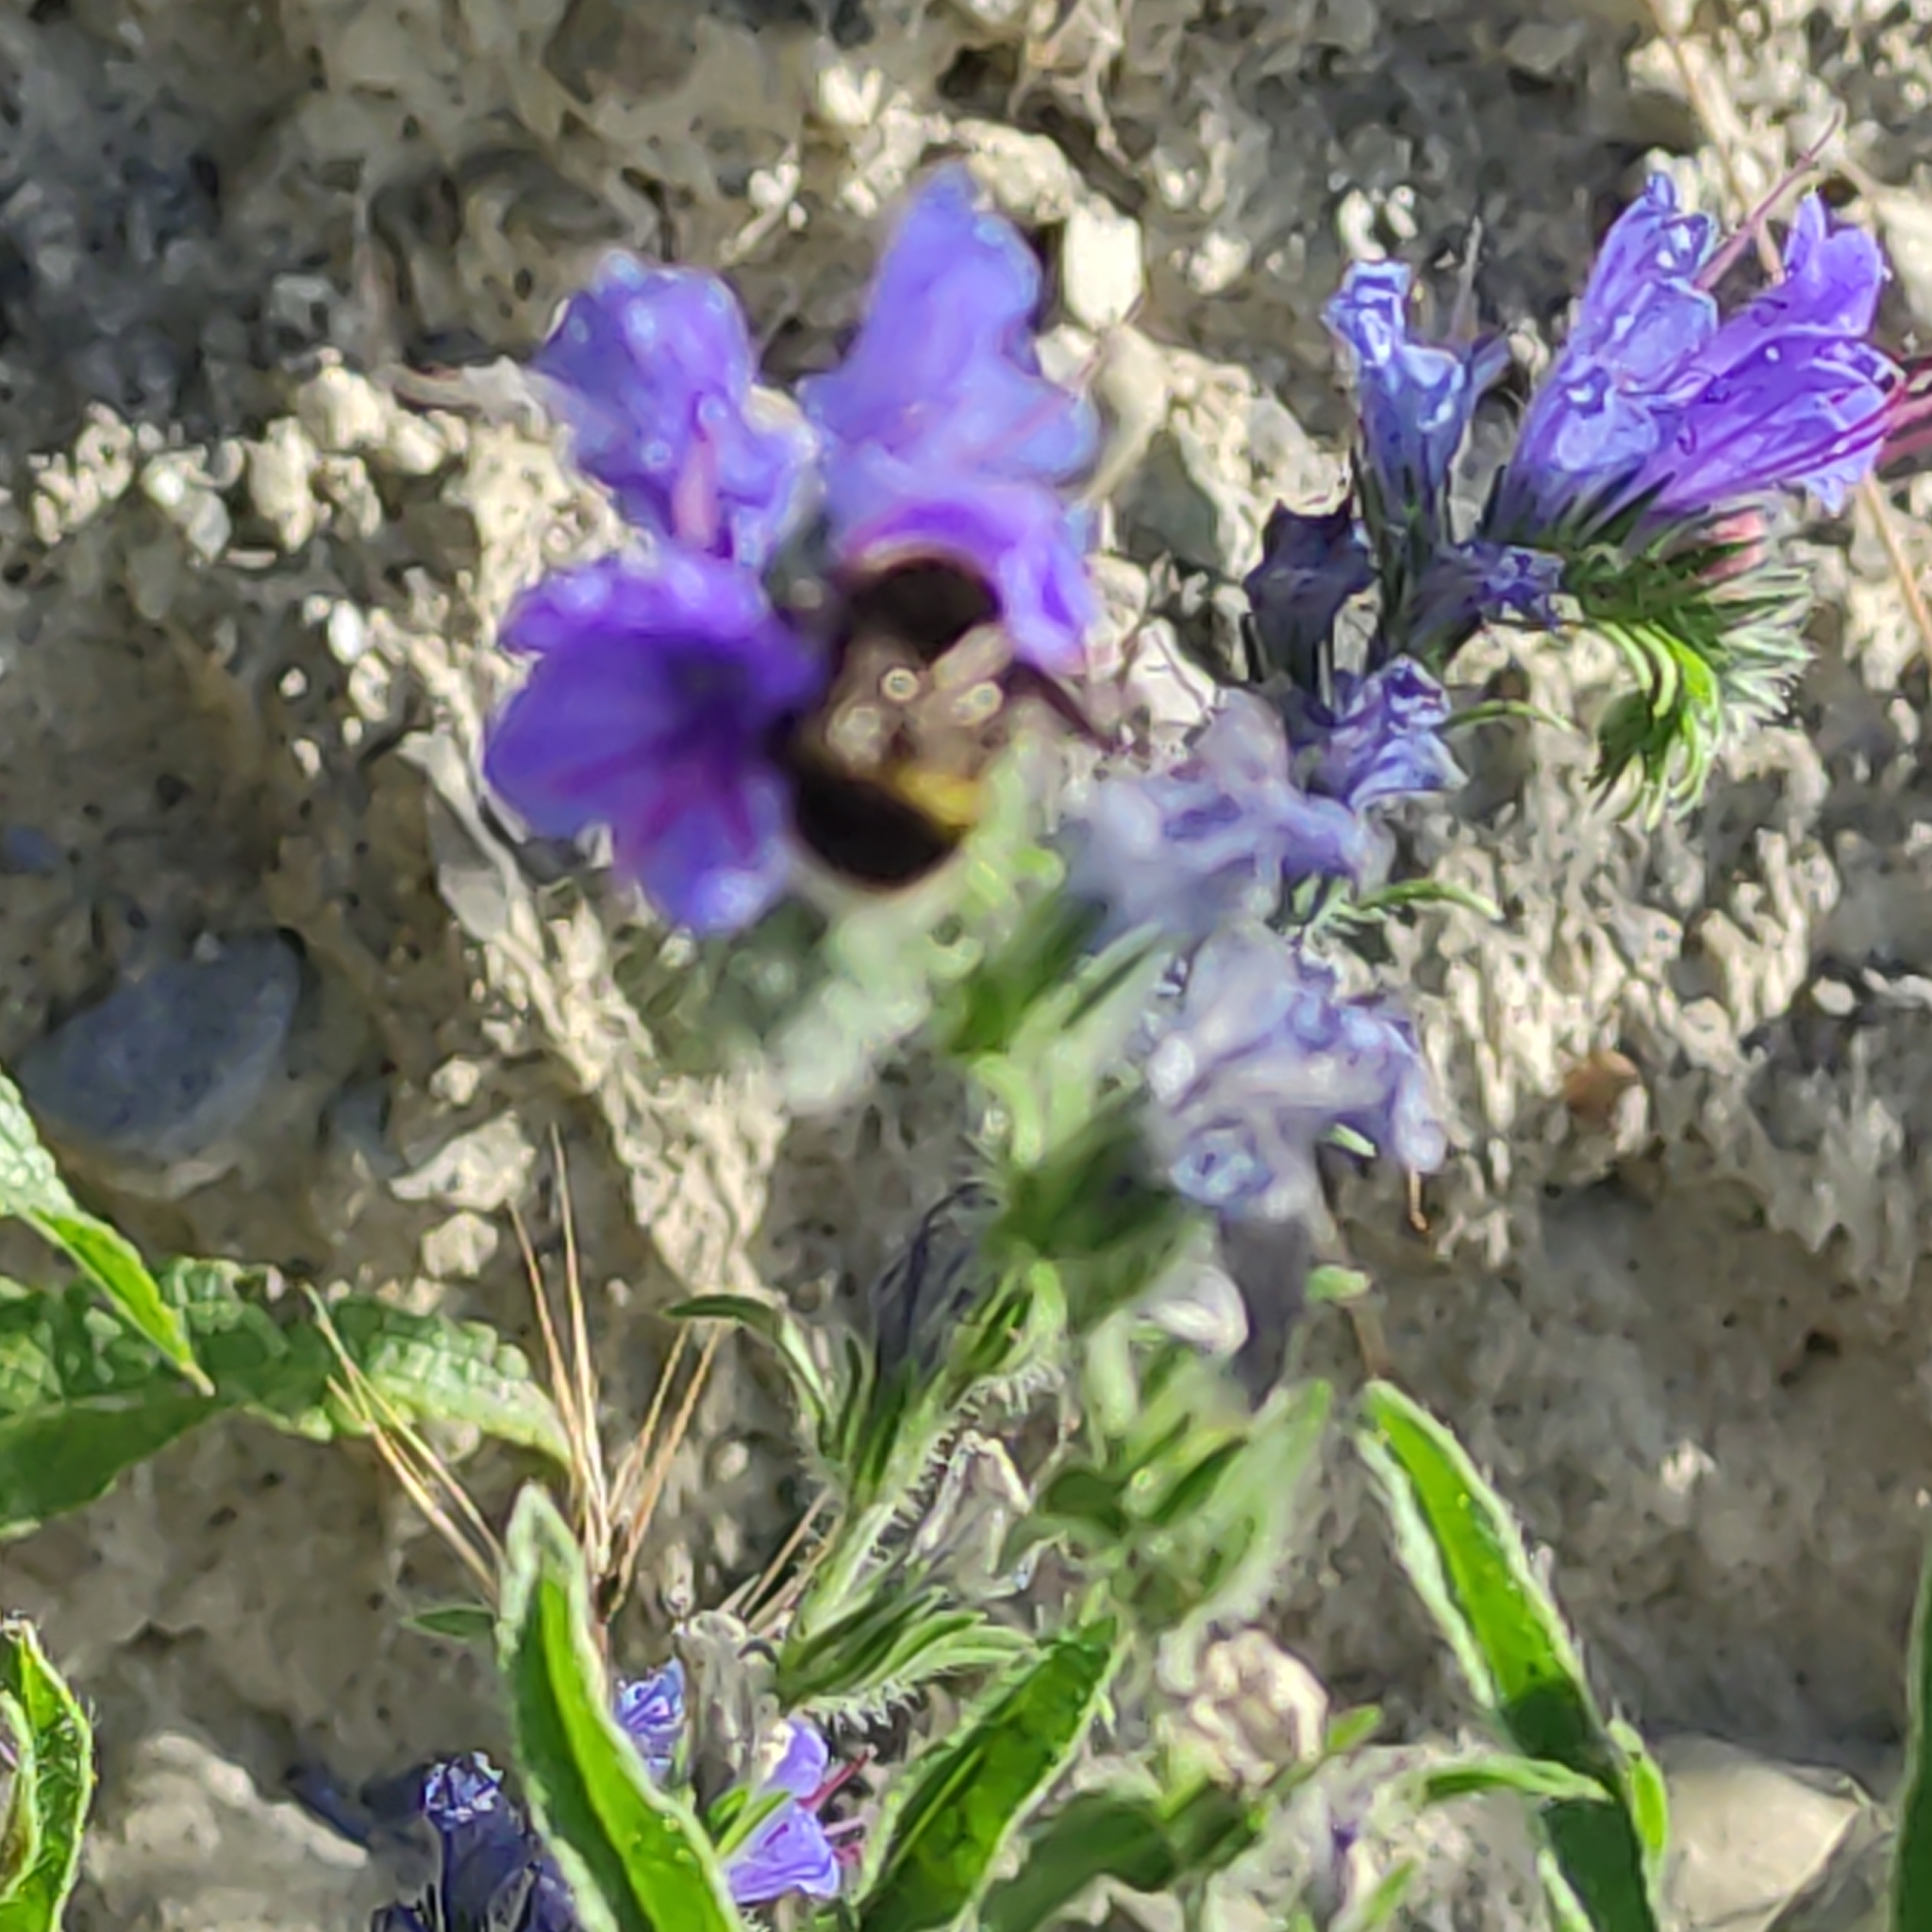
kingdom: Animalia
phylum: Arthropoda
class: Insecta
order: Hymenoptera
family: Apidae
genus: Bombus
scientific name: Bombus terrestris
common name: Buff-tailed bumblebee
